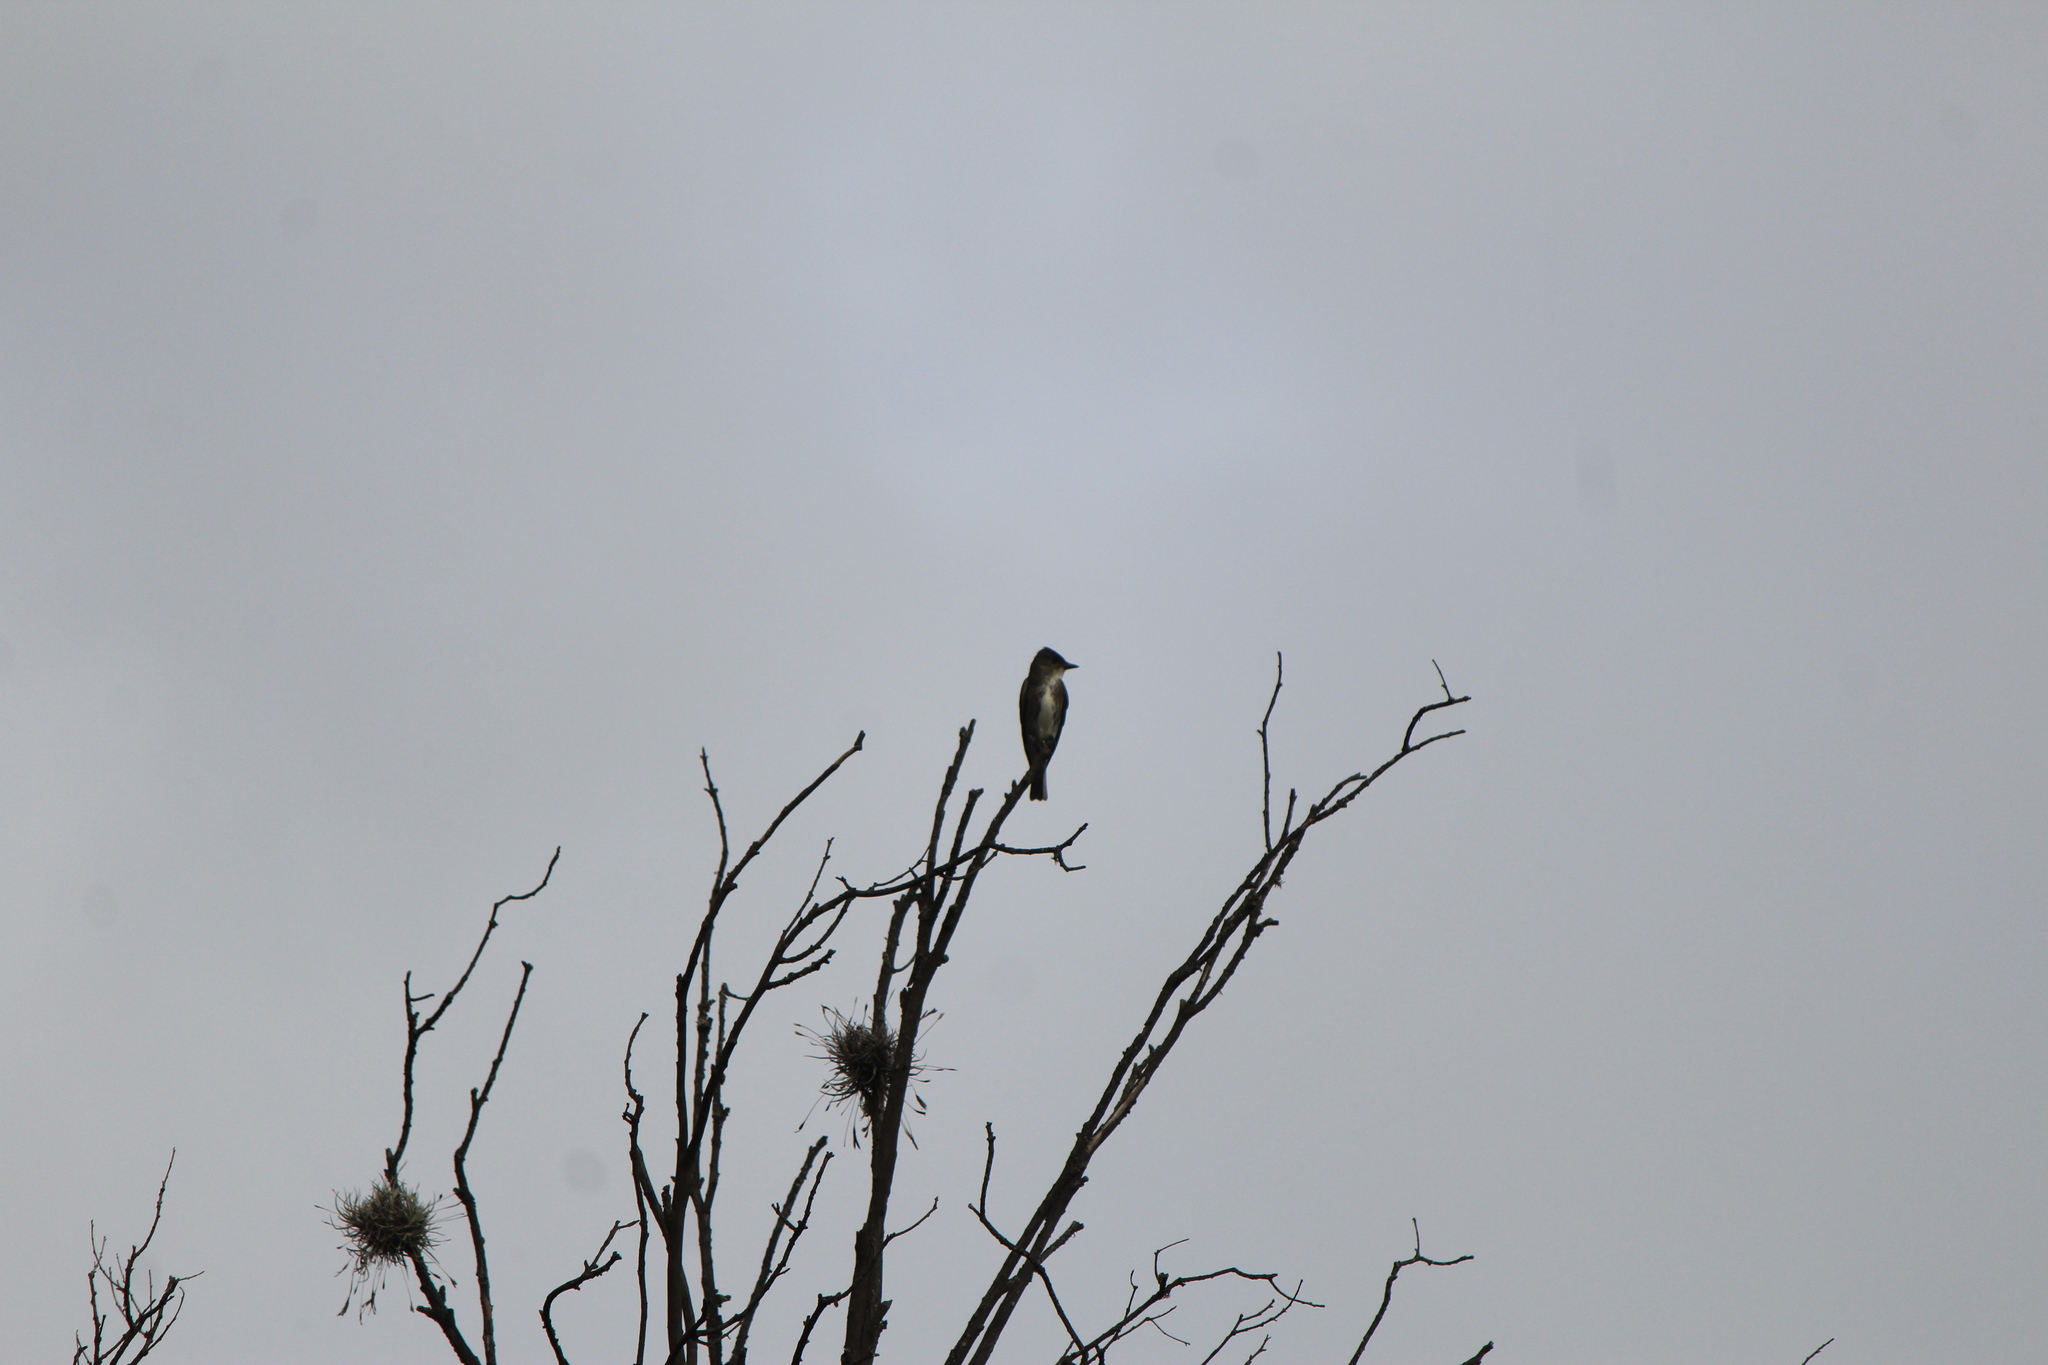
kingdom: Animalia
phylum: Chordata
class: Aves
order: Passeriformes
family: Tyrannidae
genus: Contopus
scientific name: Contopus cooperi
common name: Olive-sided flycatcher
